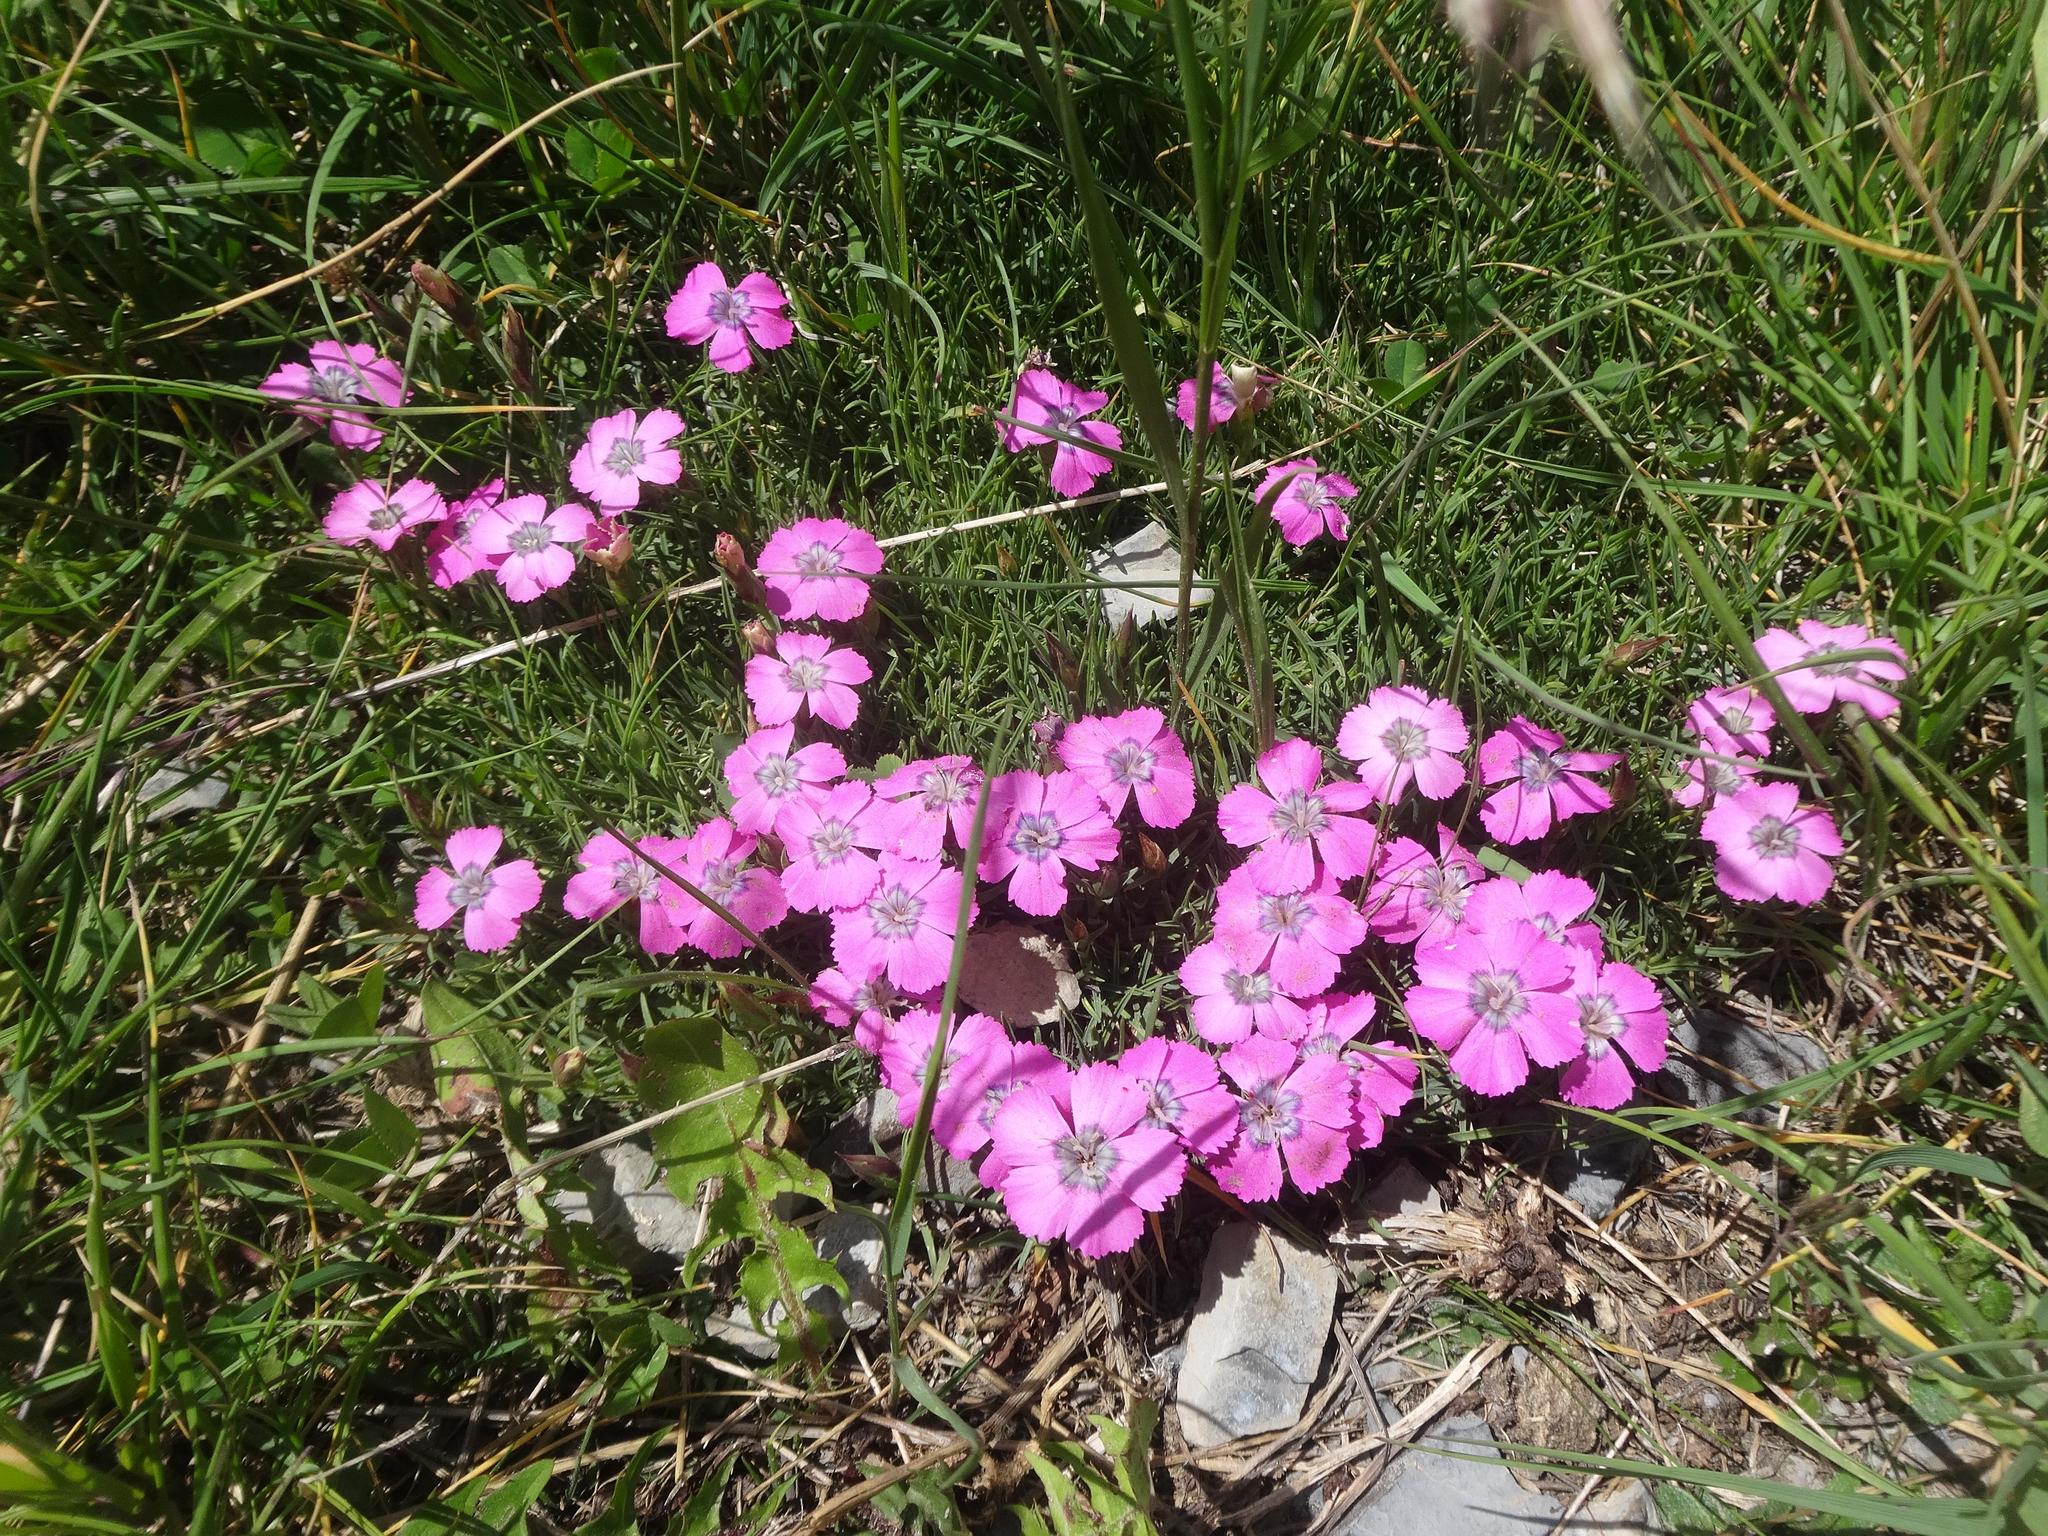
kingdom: Plantae
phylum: Tracheophyta
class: Magnoliopsida
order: Caryophyllales
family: Caryophyllaceae
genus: Dianthus
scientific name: Dianthus pavonius
